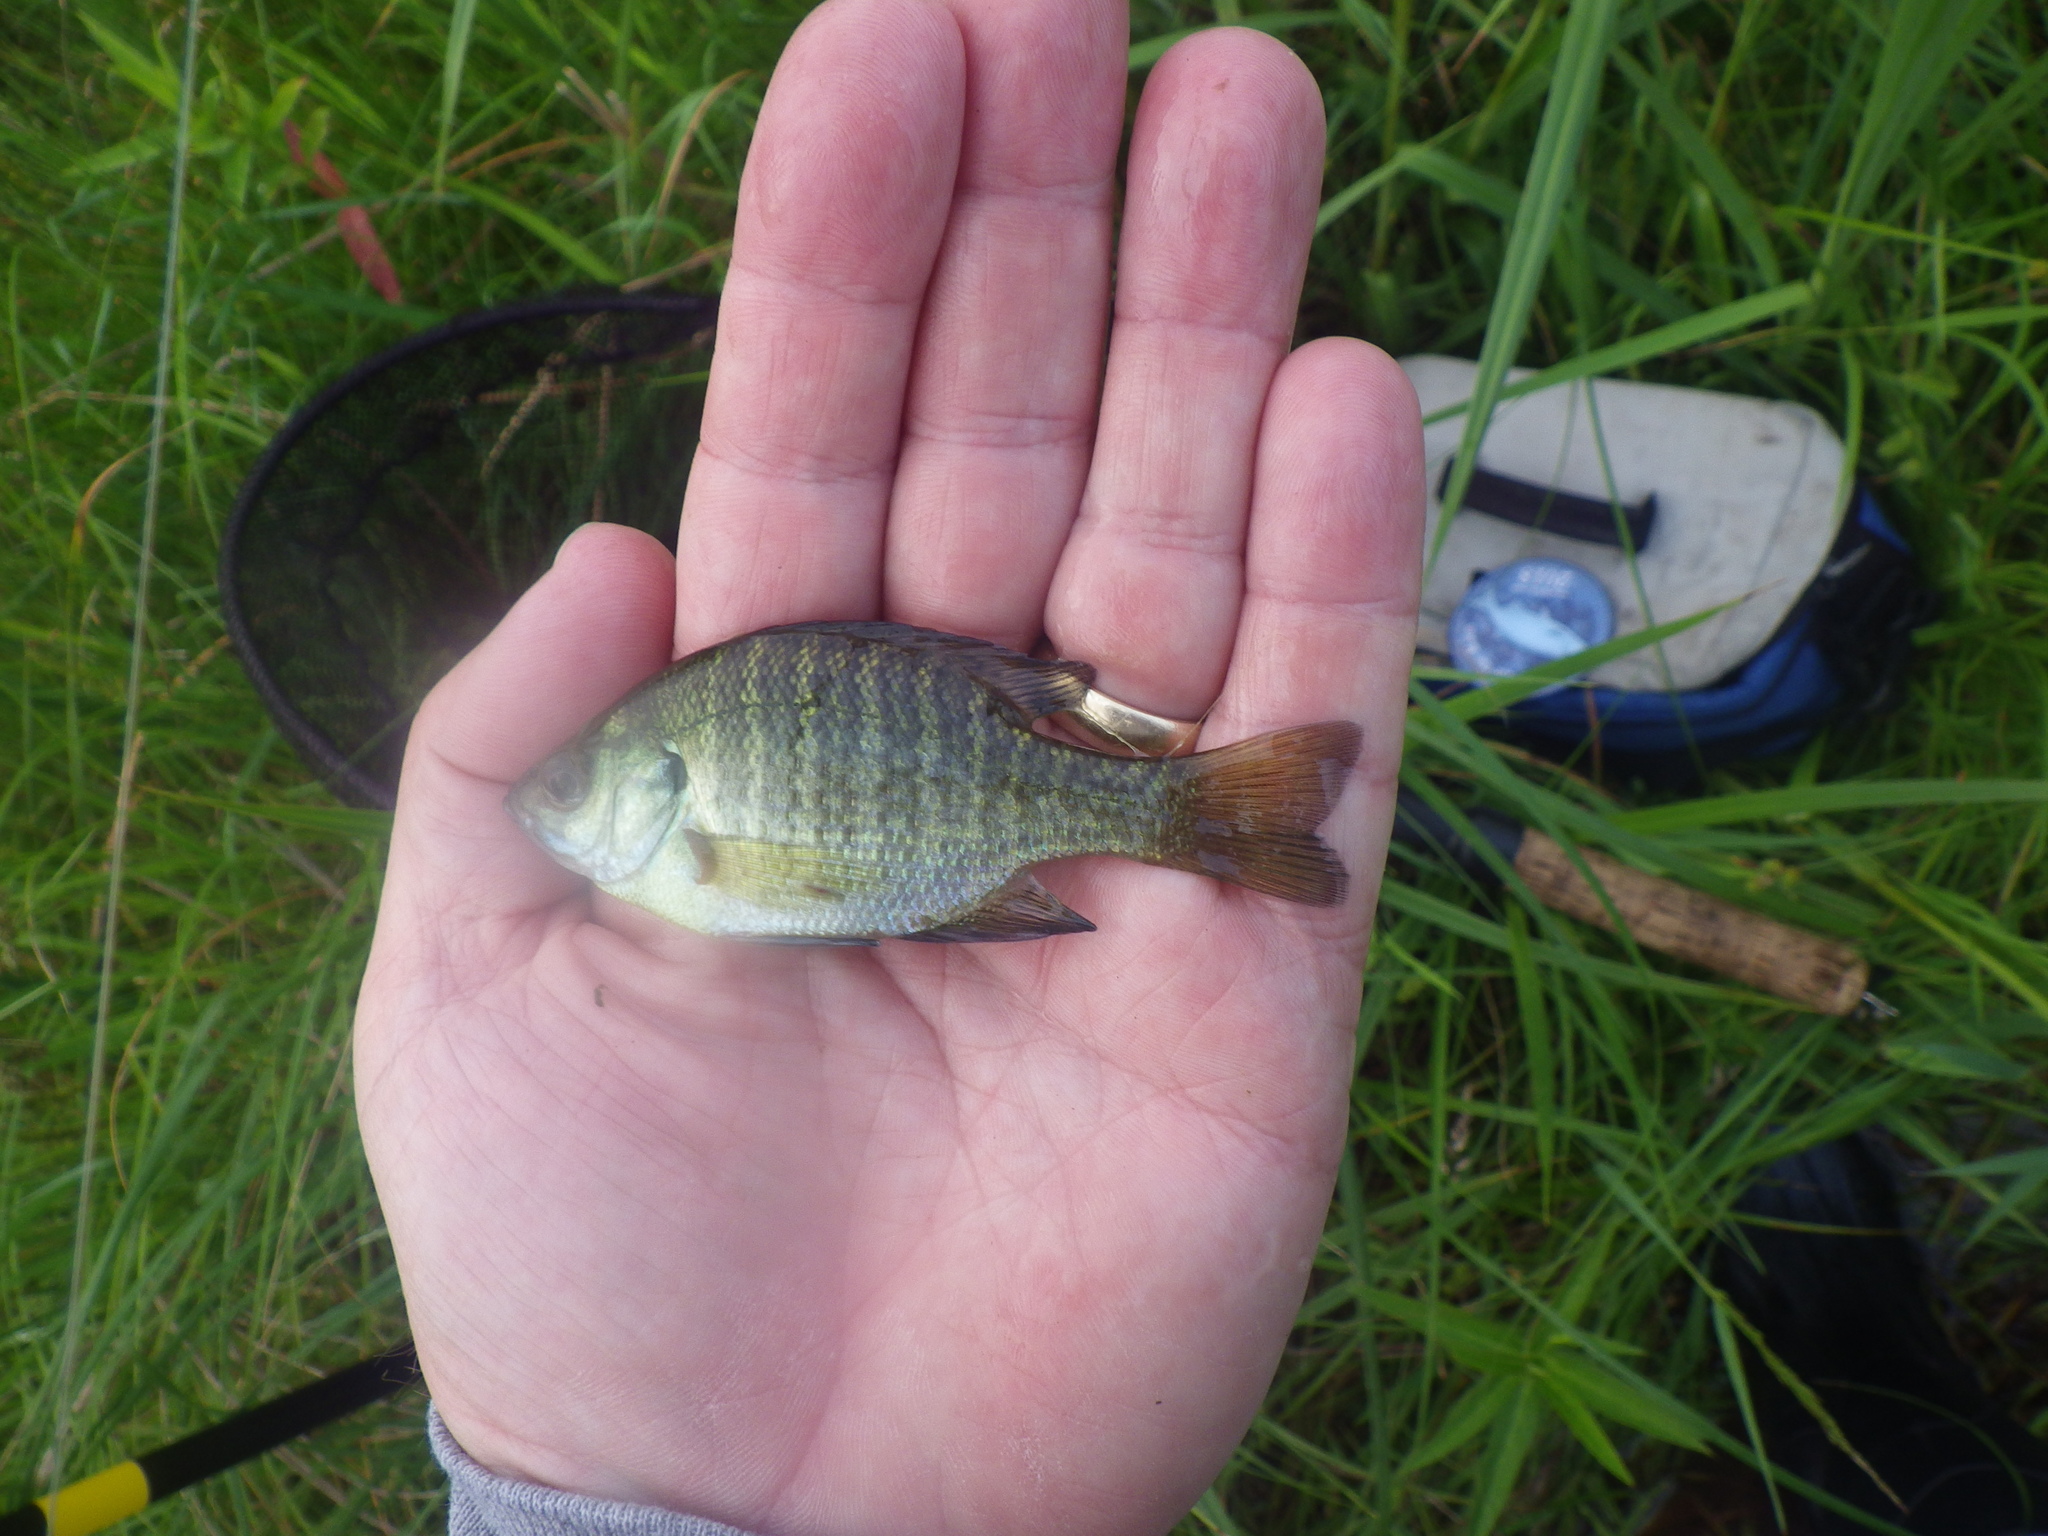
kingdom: Animalia
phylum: Chordata
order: Perciformes
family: Centrarchidae
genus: Lepomis
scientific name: Lepomis macrochirus
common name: Bluegill
